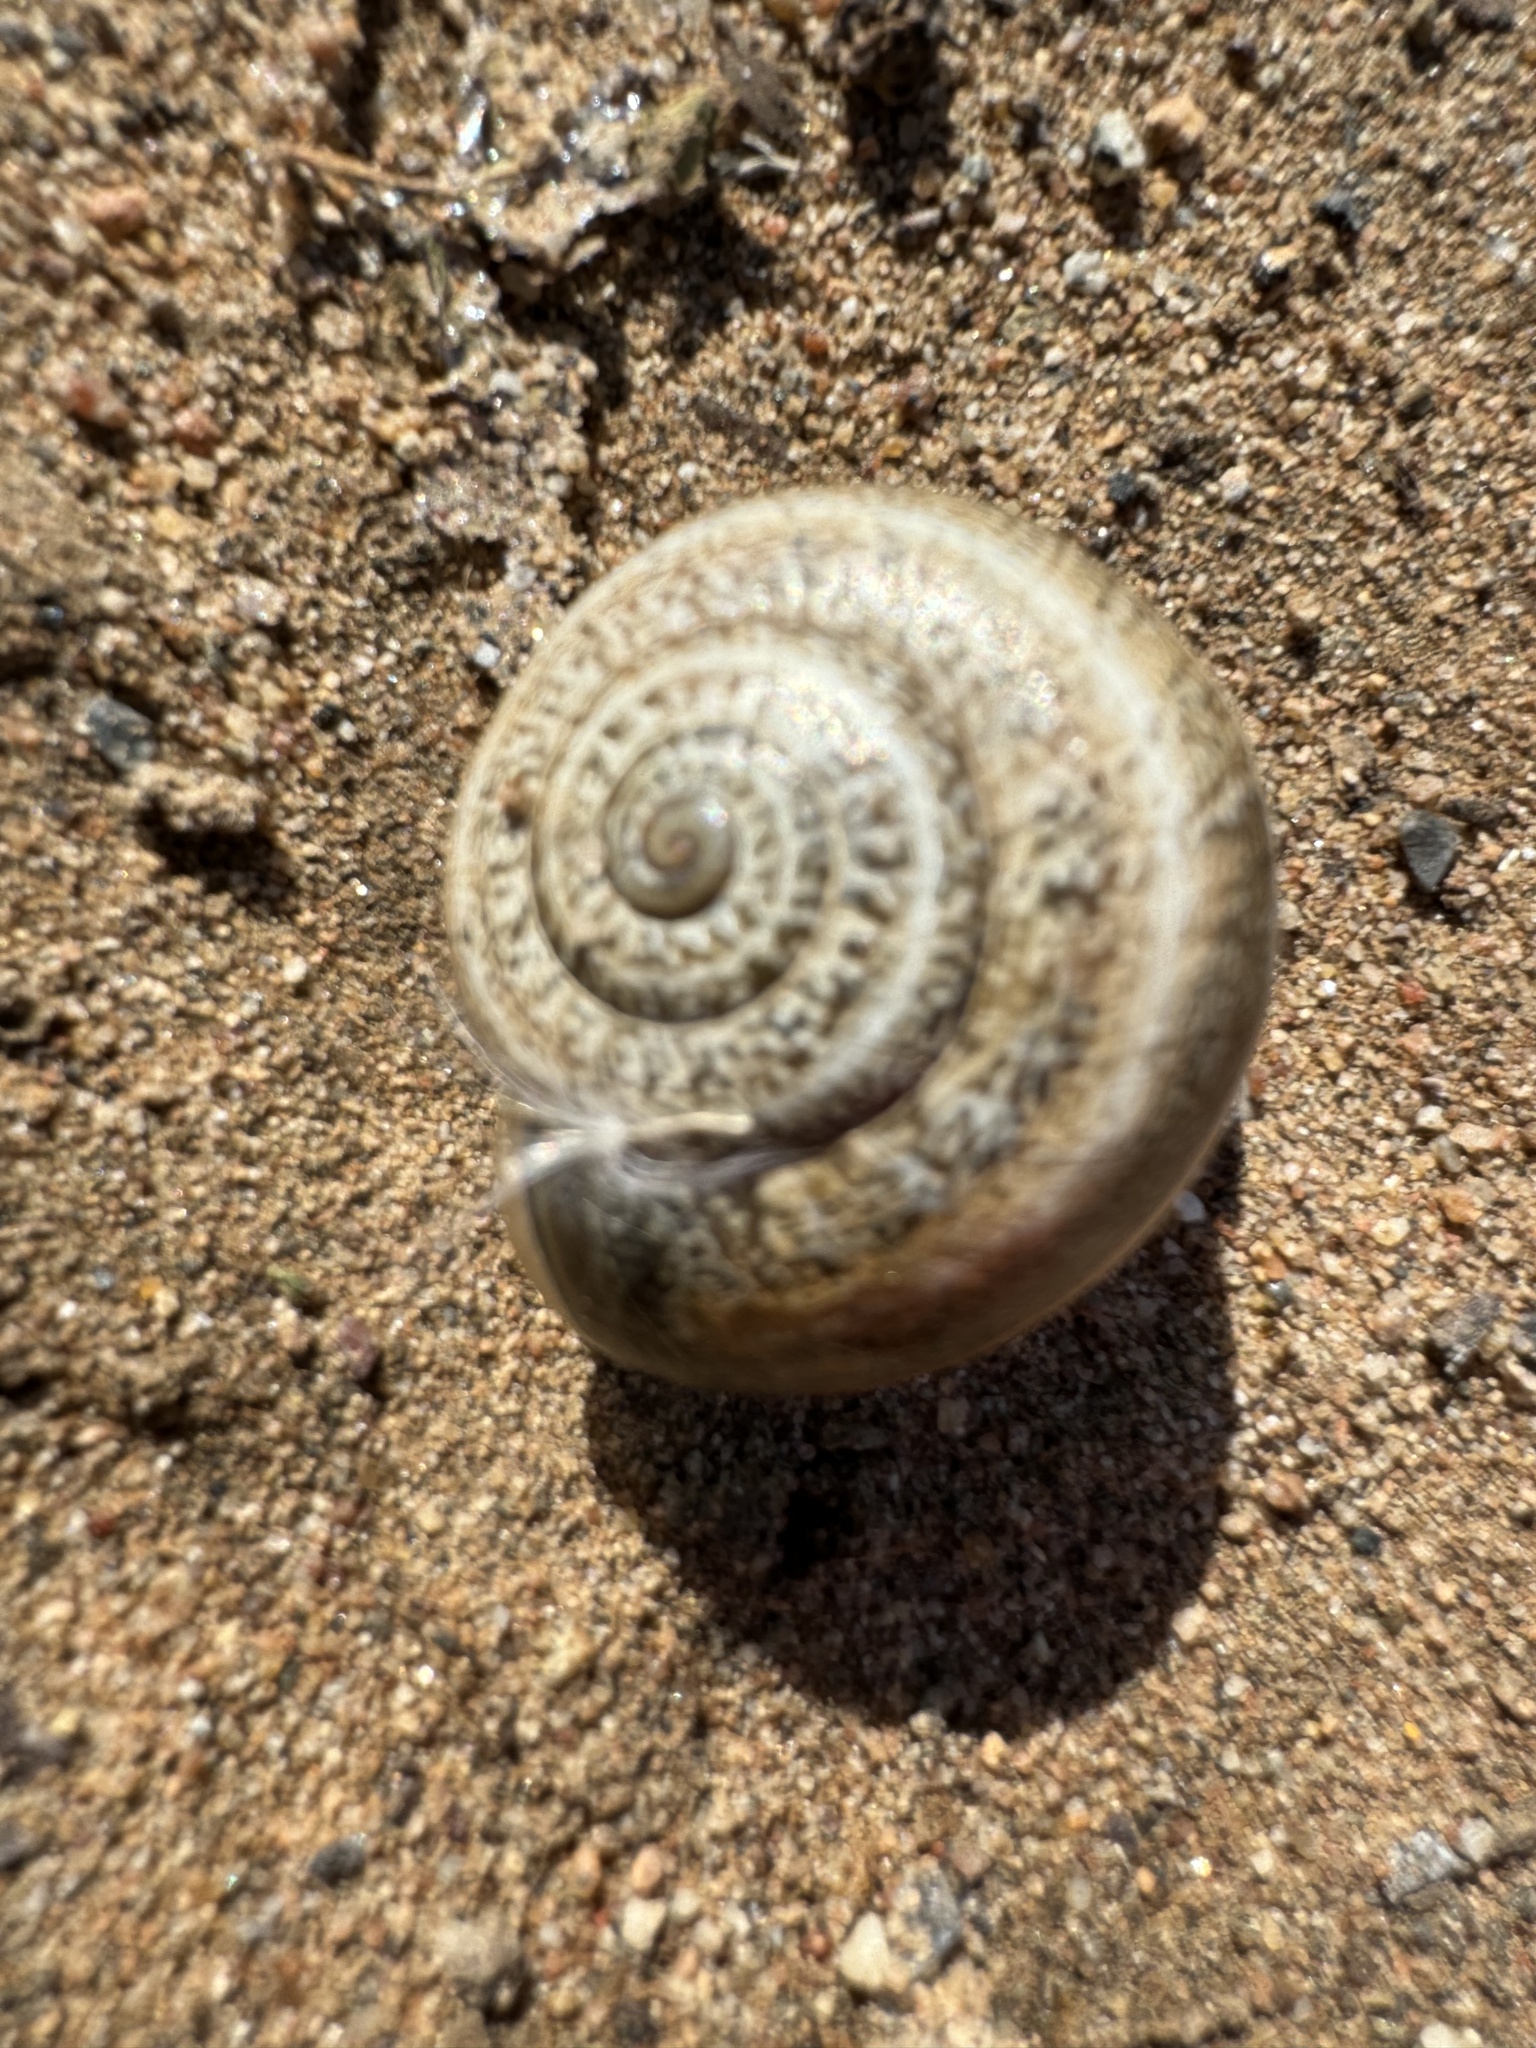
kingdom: Animalia
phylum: Mollusca
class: Gastropoda
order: Stylommatophora
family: Helicidae
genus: Otala
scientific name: Otala lactea
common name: Milk snail
